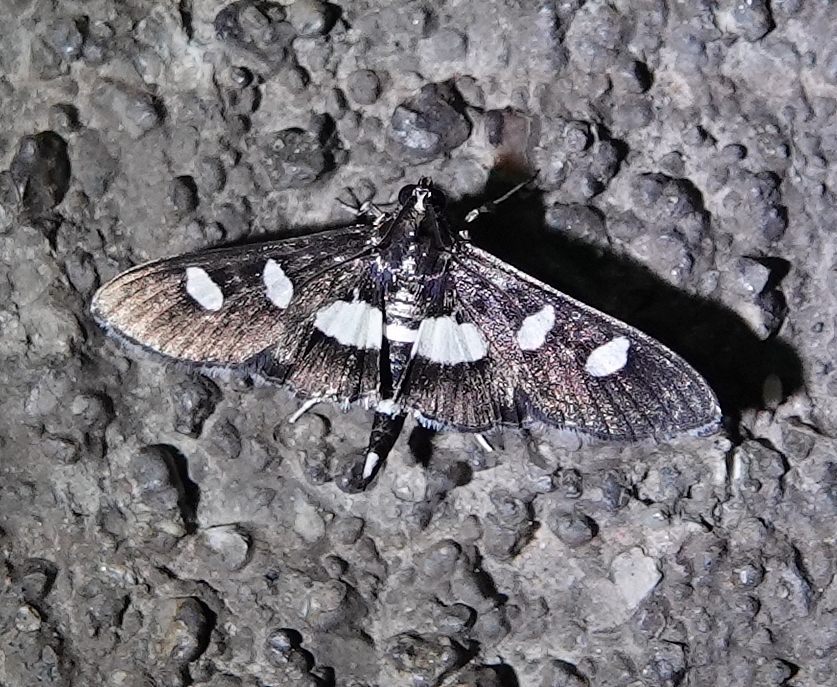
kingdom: Animalia
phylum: Arthropoda
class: Insecta
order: Lepidoptera
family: Crambidae
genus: Desmia
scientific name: Desmia
